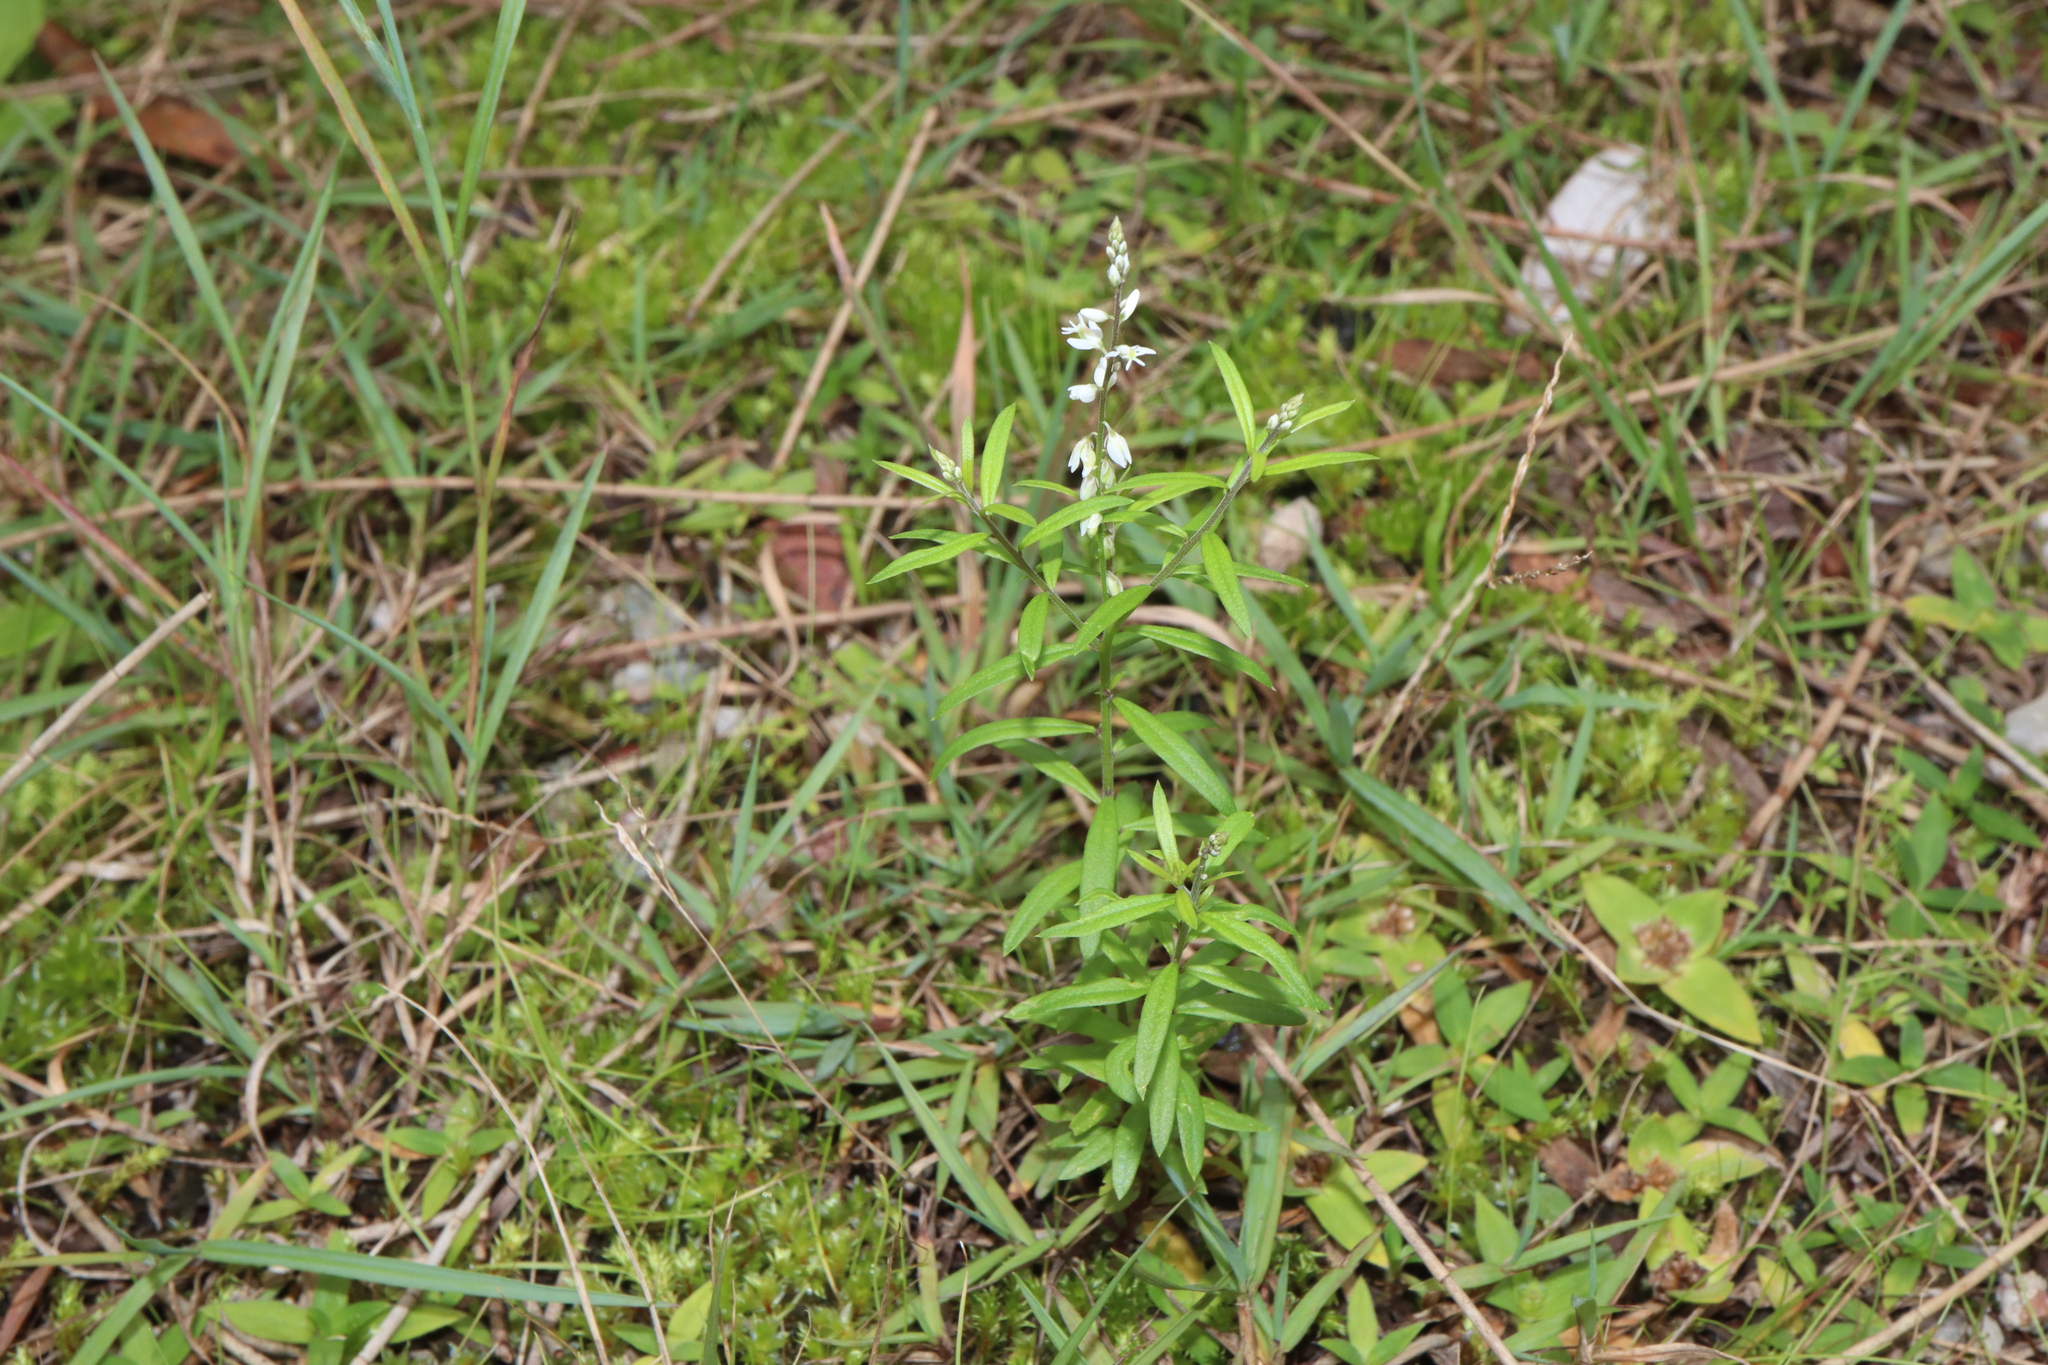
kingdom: Plantae
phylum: Tracheophyta
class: Magnoliopsida
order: Fabales
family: Polygalaceae
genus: Polygala
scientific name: Polygala paniculata
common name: Orosne
